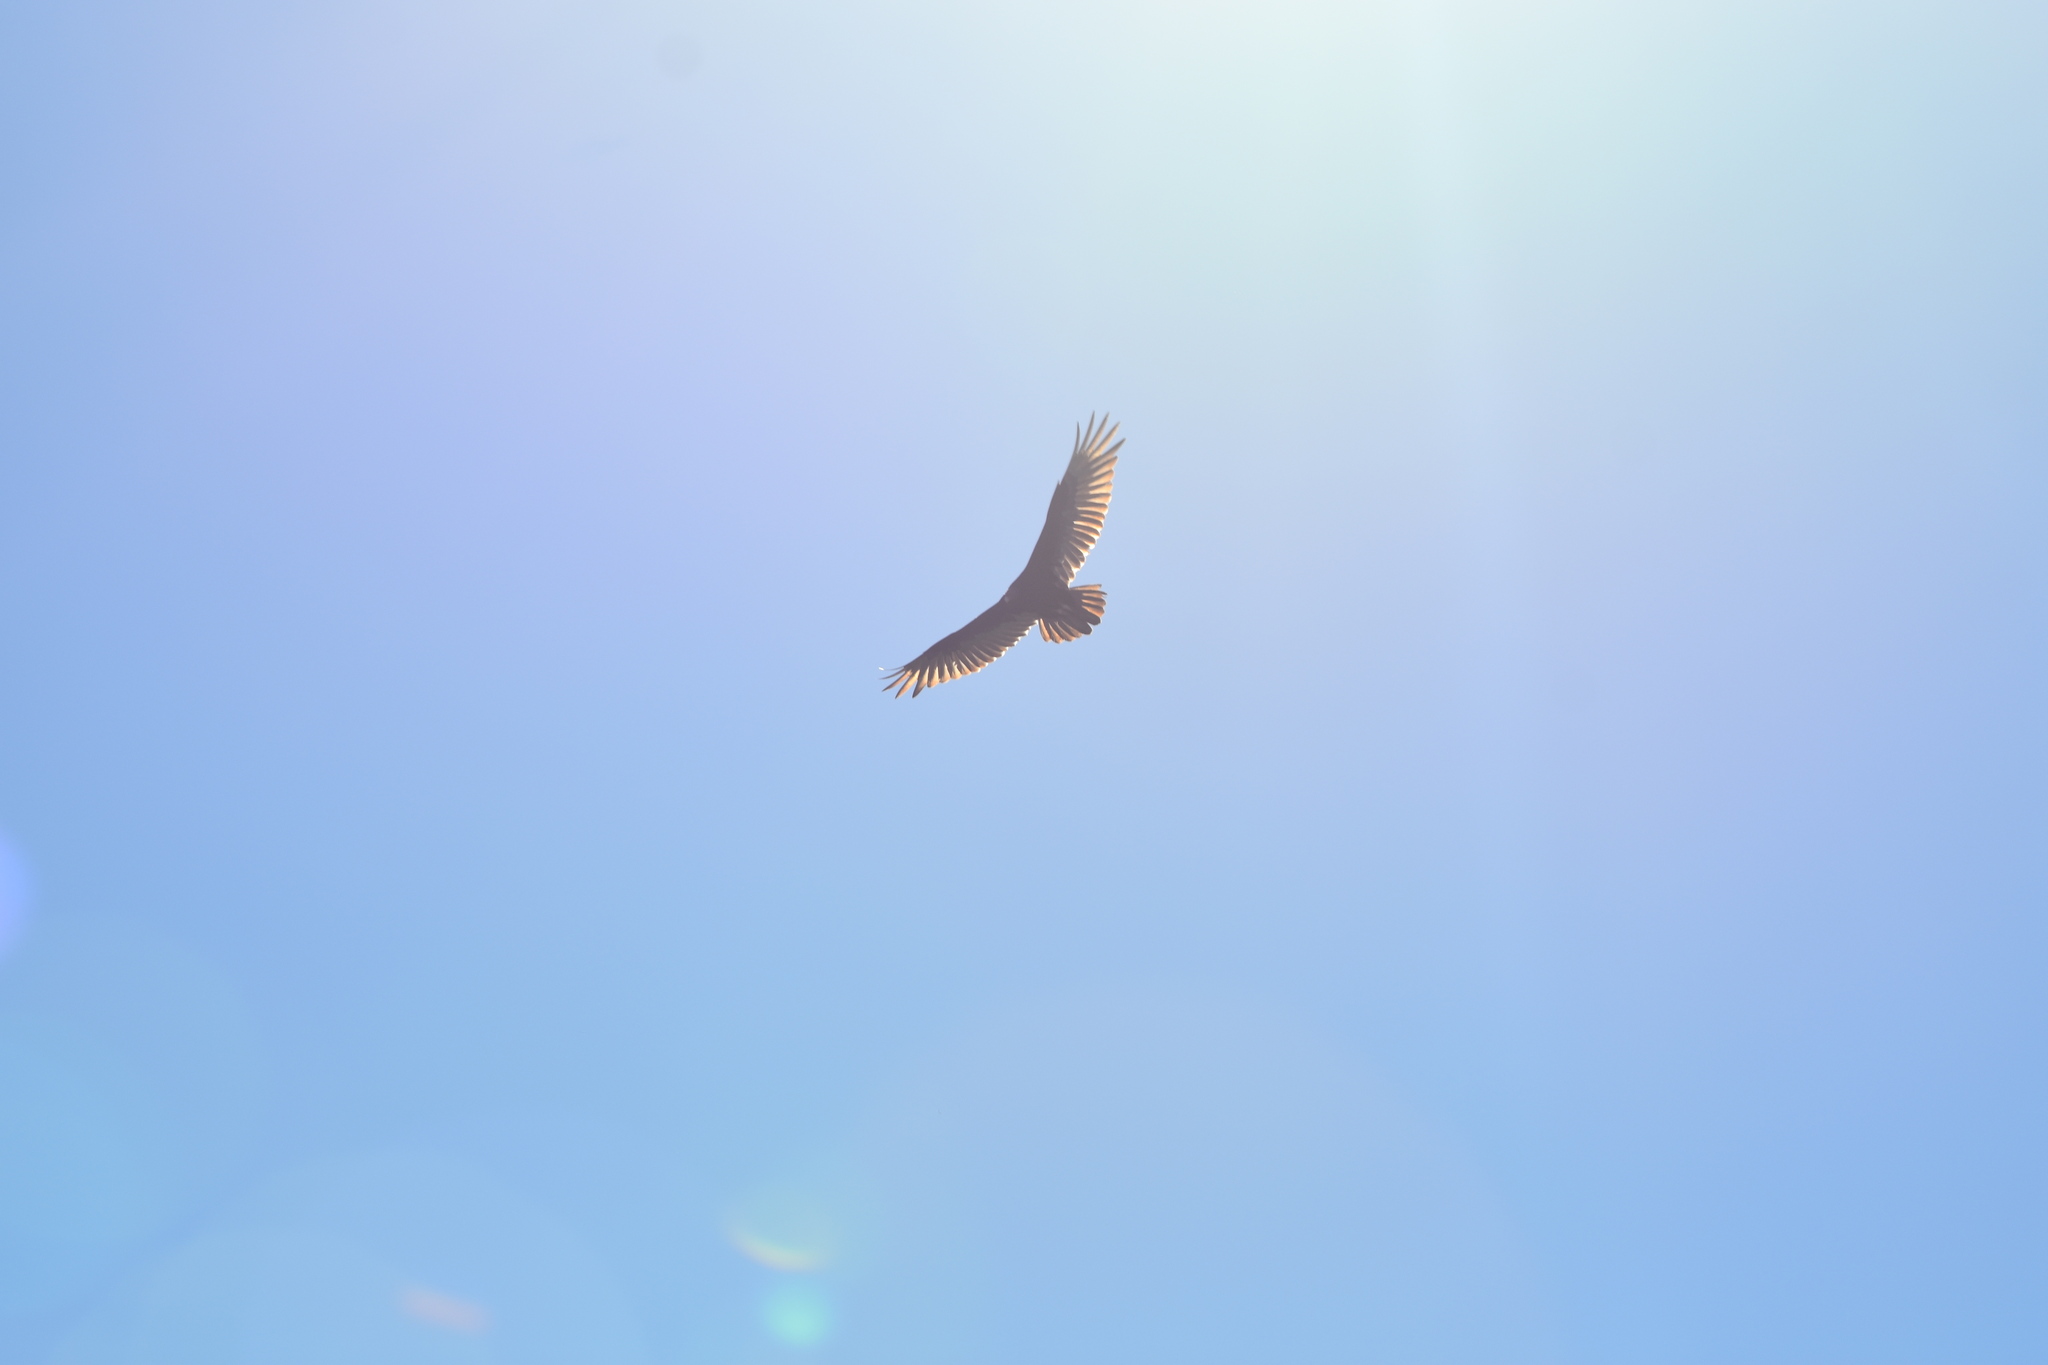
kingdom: Animalia
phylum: Chordata
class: Aves
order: Accipitriformes
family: Cathartidae
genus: Cathartes
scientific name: Cathartes aura
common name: Turkey vulture
